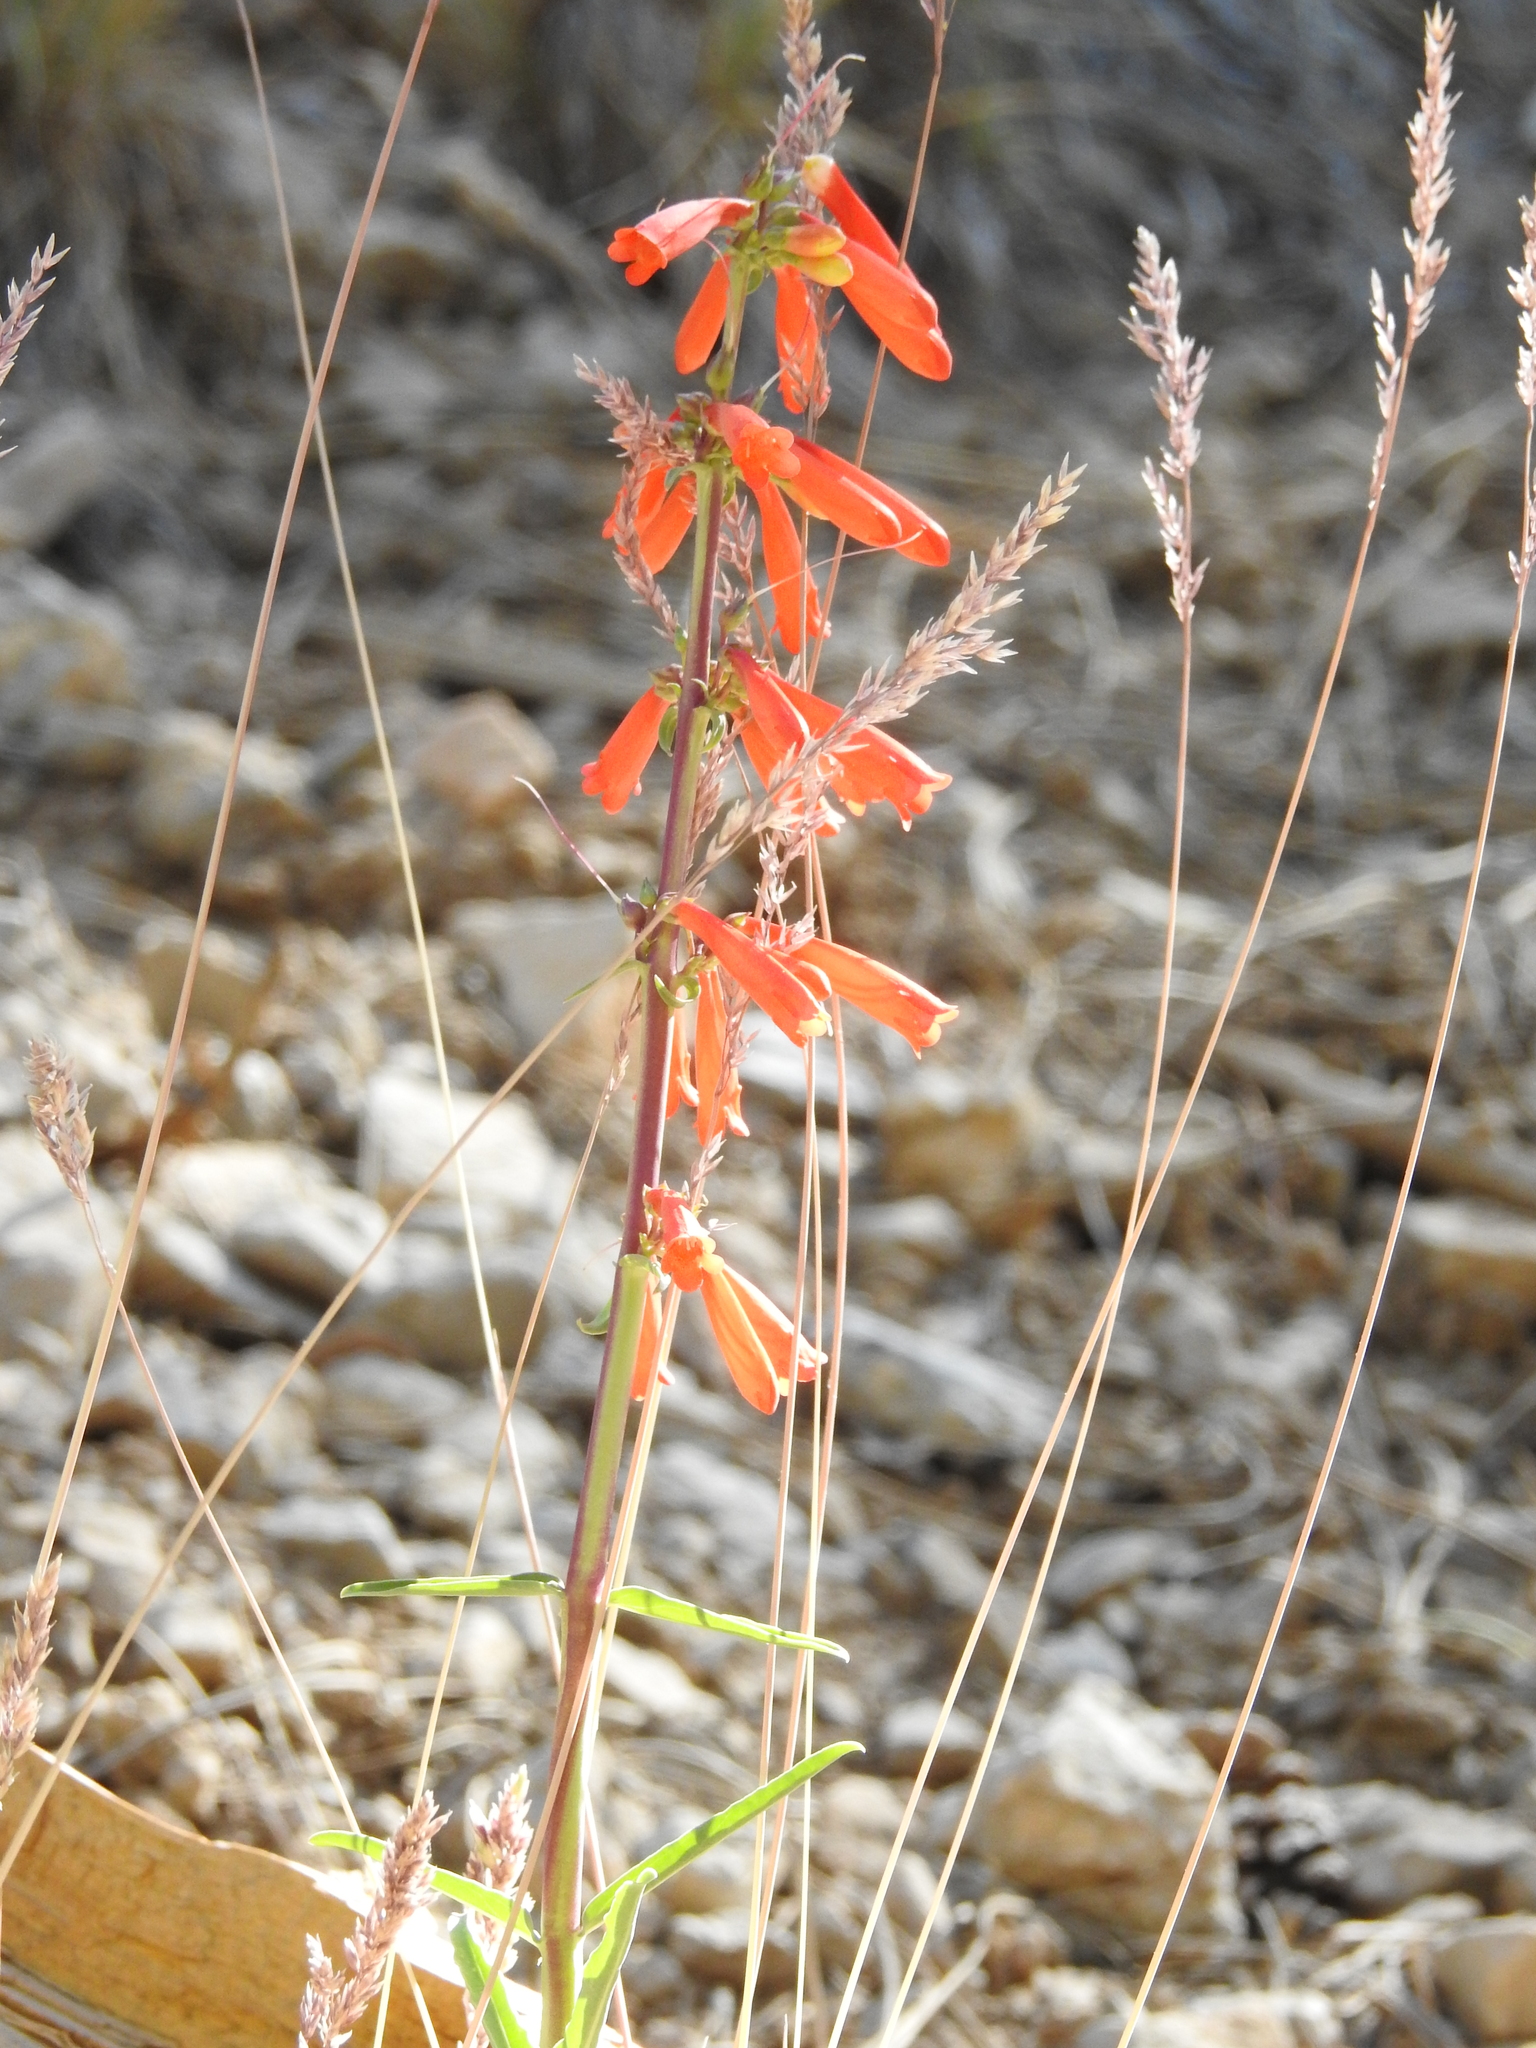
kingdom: Plantae
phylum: Tracheophyta
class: Magnoliopsida
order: Lamiales
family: Plantaginaceae
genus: Penstemon
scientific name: Penstemon eatonii
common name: Eaton's penstemon
